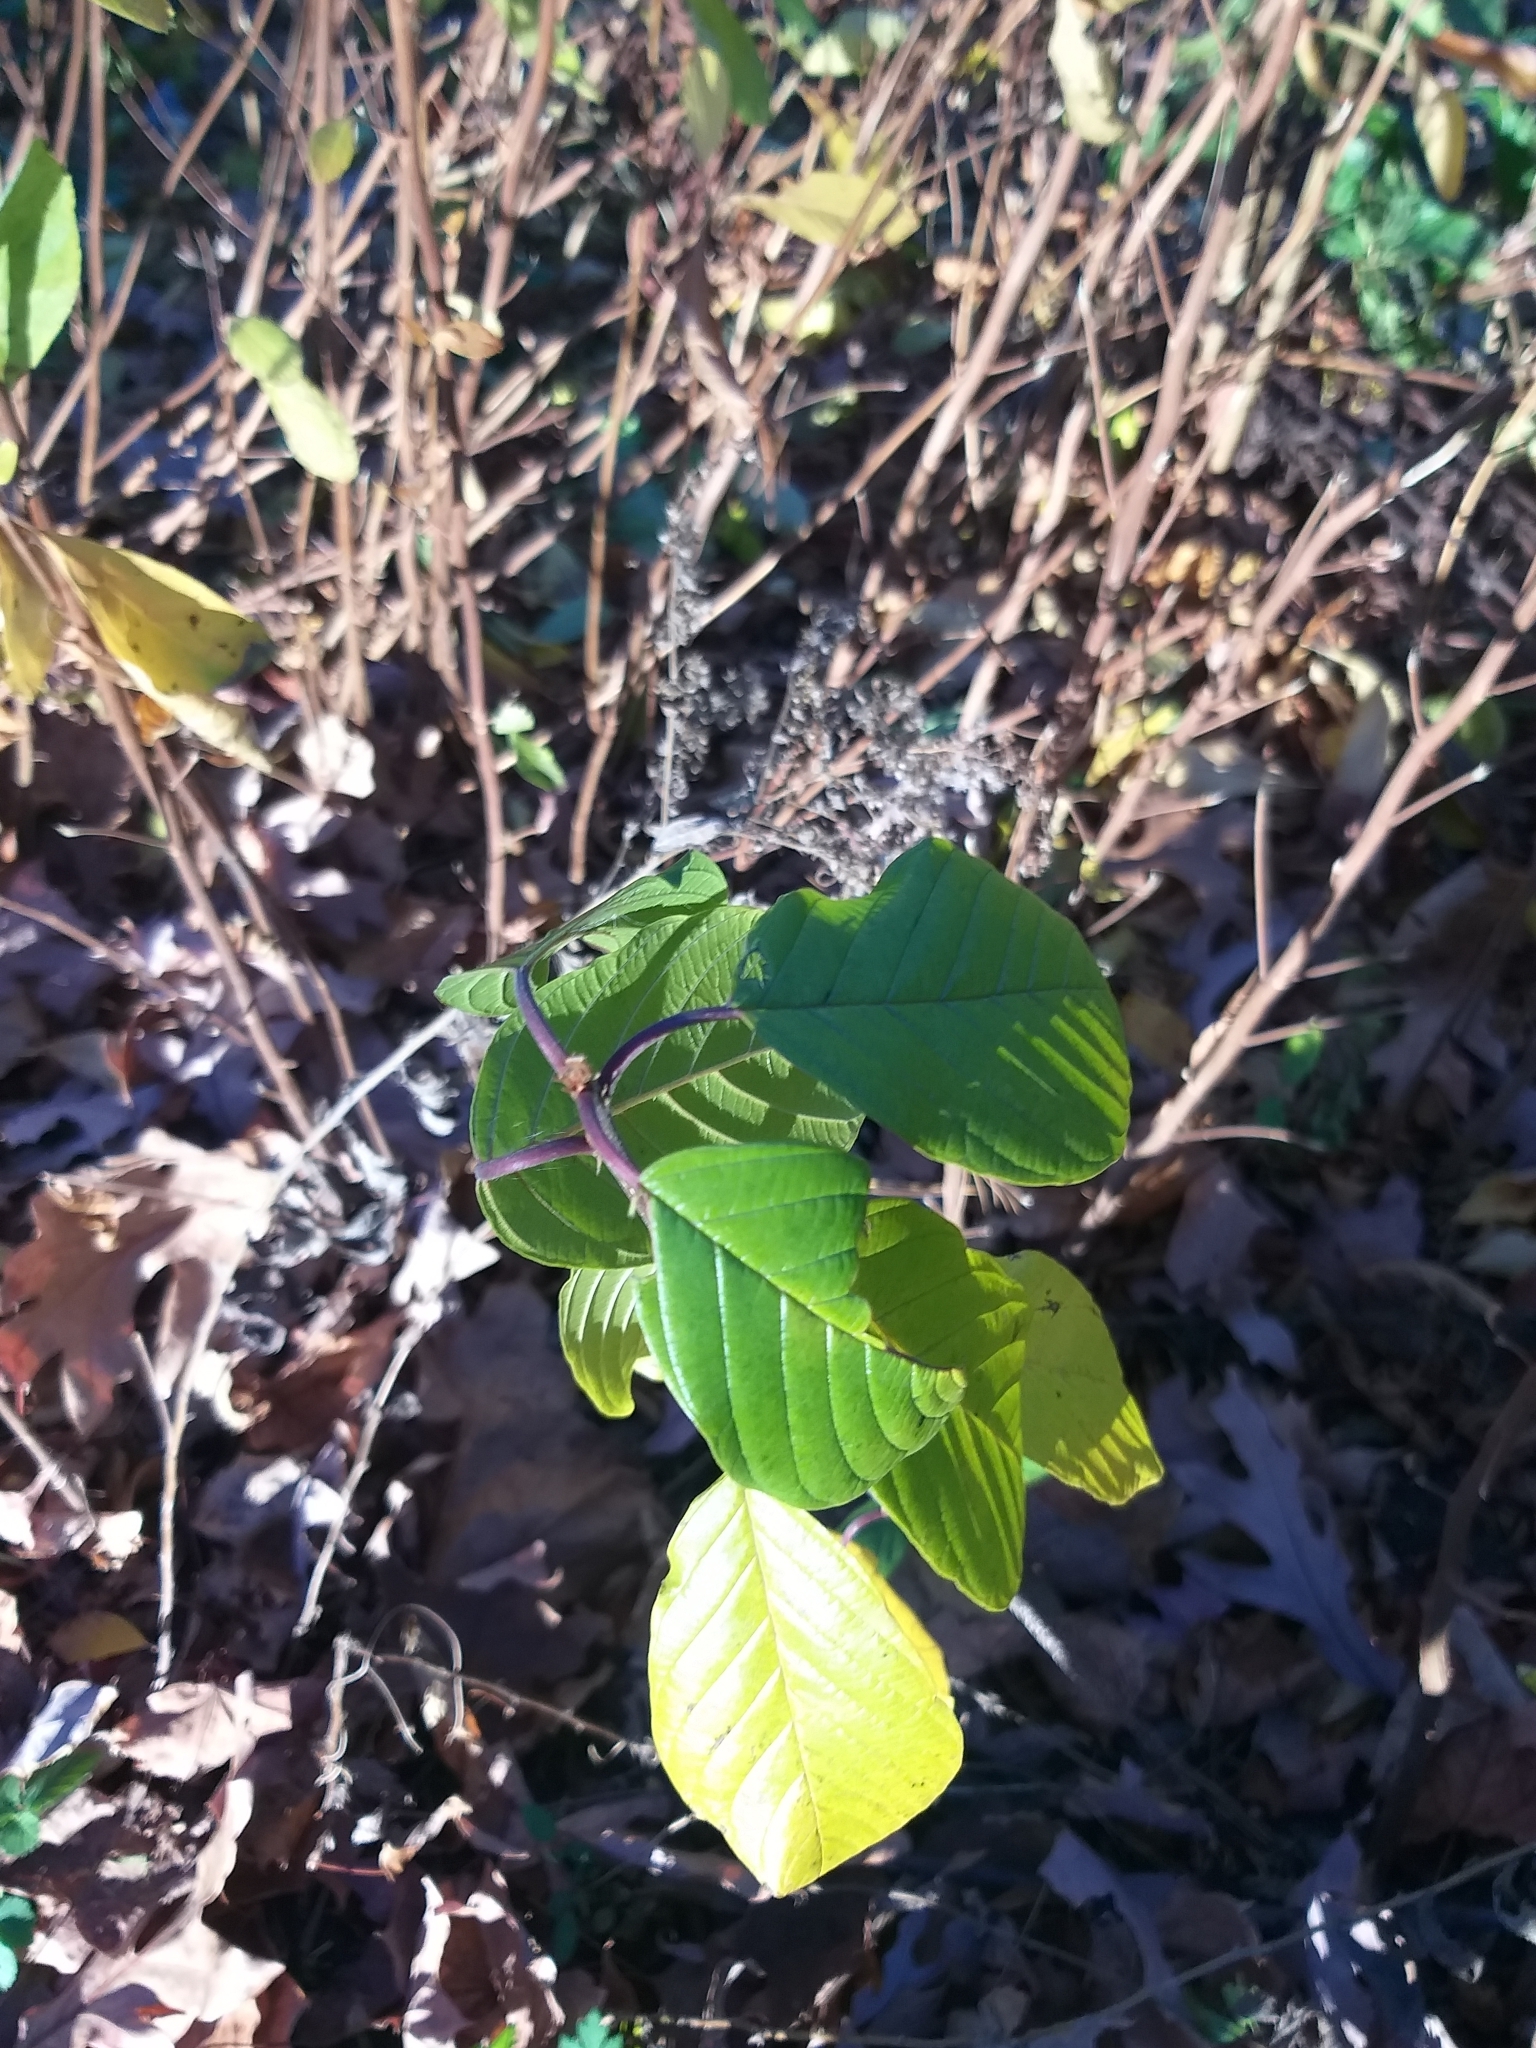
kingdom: Plantae
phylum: Tracheophyta
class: Magnoliopsida
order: Rosales
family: Rhamnaceae
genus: Frangula
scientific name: Frangula alnus
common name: Alder buckthorn
